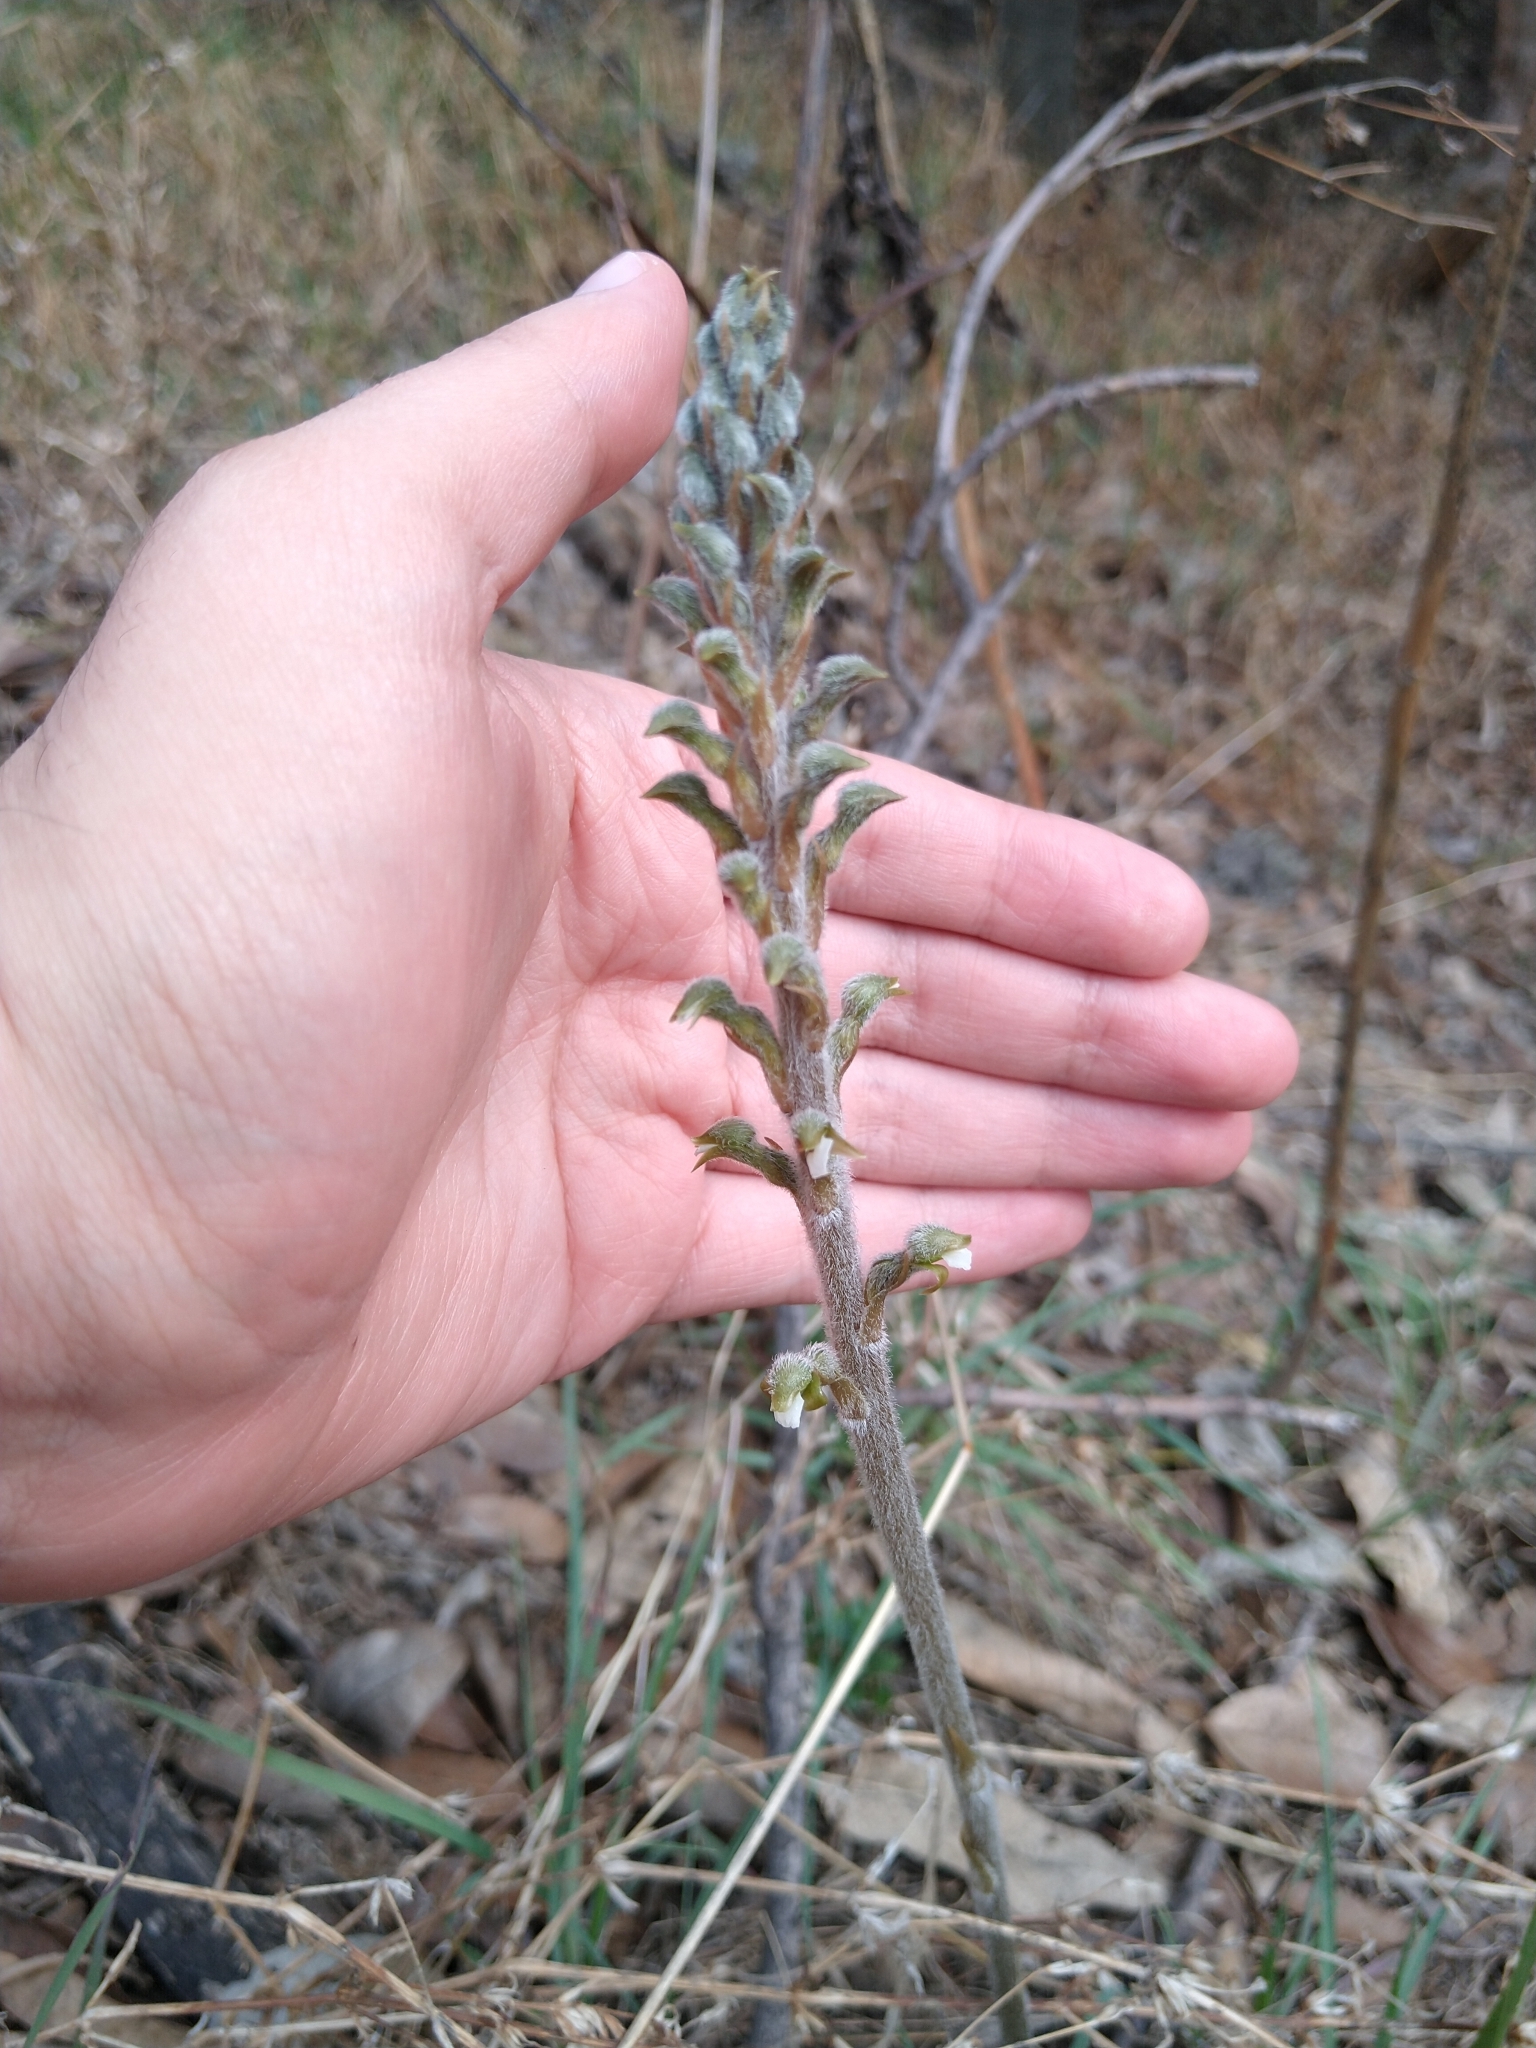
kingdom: Plantae
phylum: Tracheophyta
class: Liliopsida
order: Asparagales
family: Orchidaceae
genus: Sarcoglottis
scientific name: Sarcoglottis schaffneri
